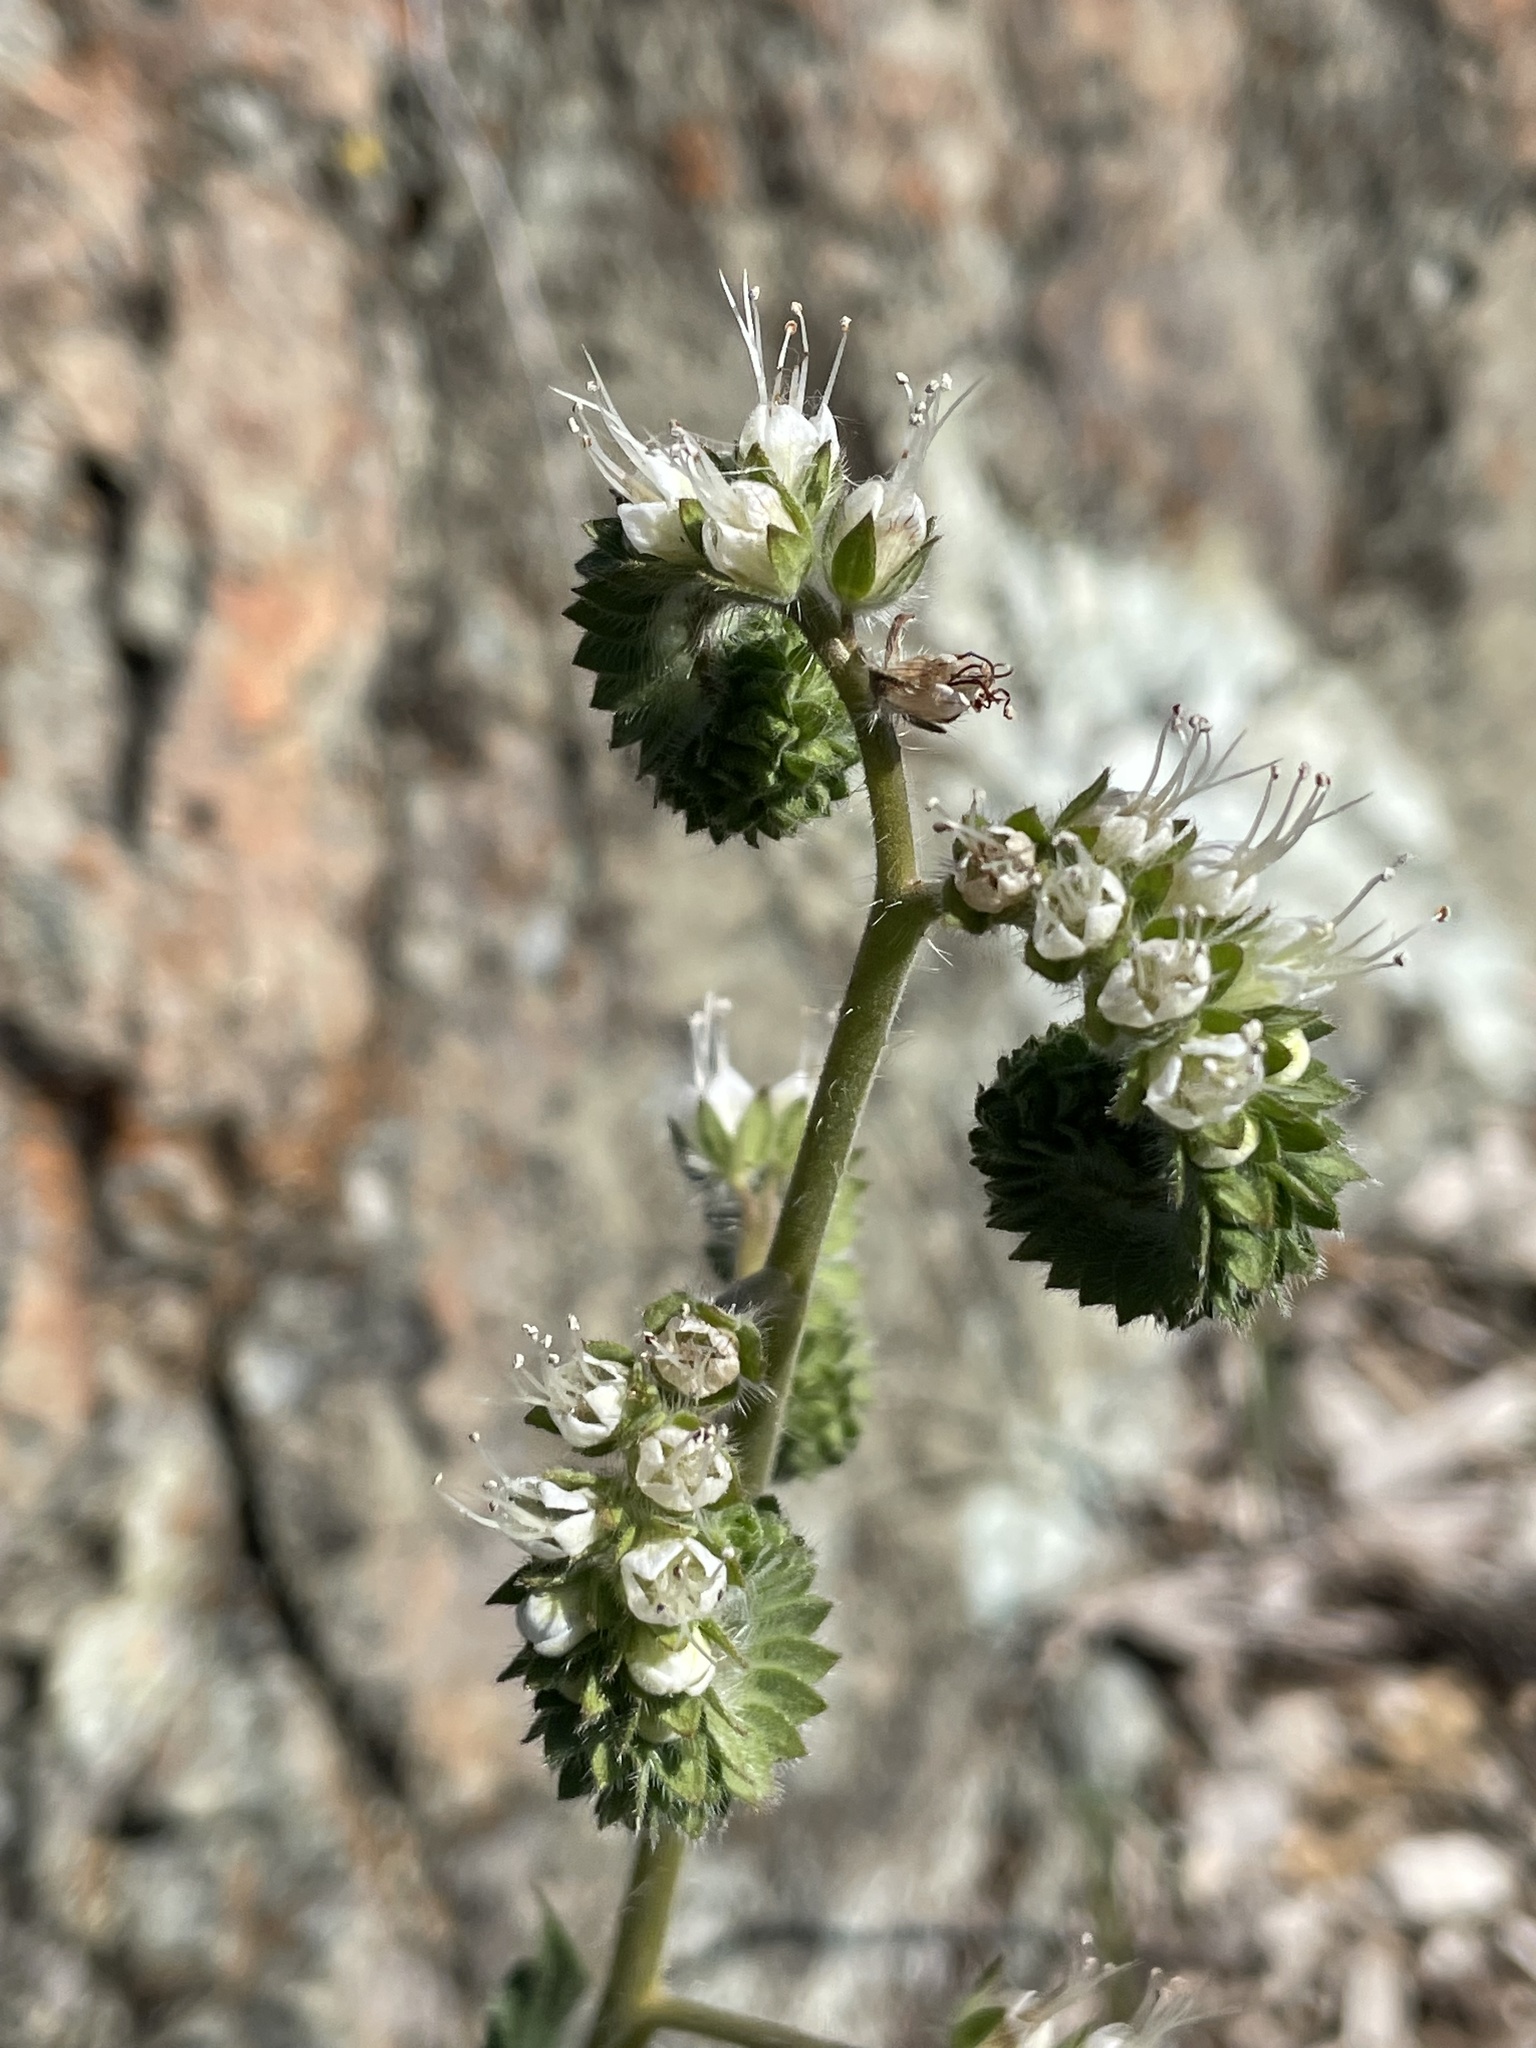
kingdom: Plantae
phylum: Tracheophyta
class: Magnoliopsida
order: Boraginales
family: Hydrophyllaceae
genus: Phacelia
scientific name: Phacelia imbricata
